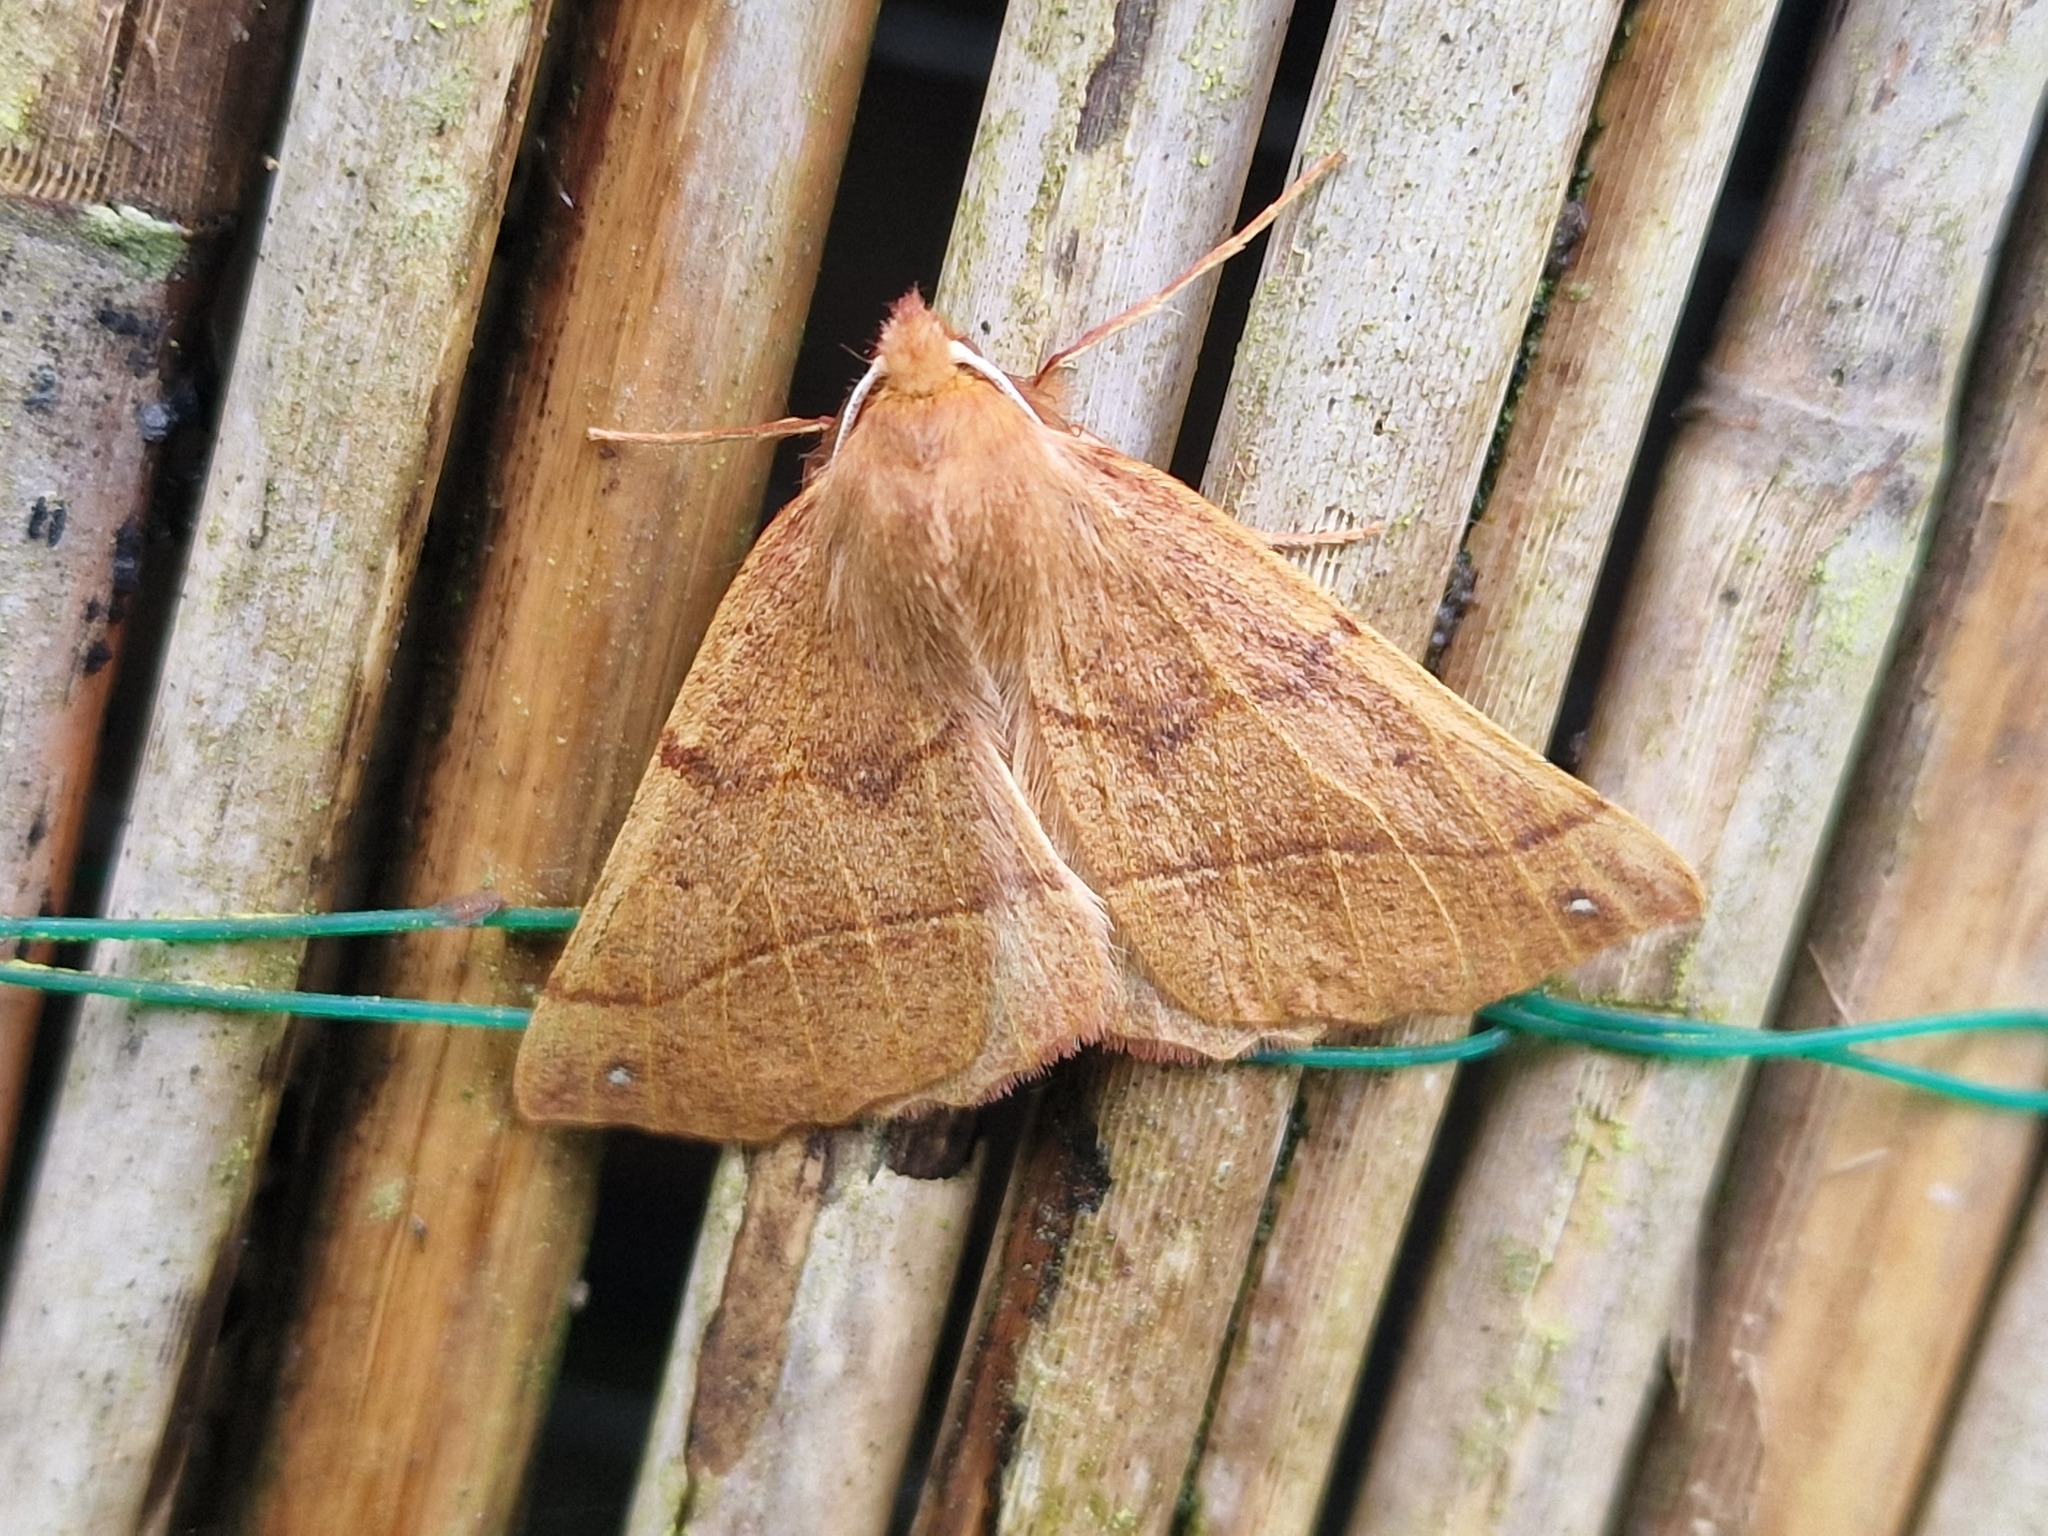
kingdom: Animalia
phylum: Arthropoda
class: Insecta
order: Lepidoptera
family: Geometridae
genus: Colotois
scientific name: Colotois pennaria
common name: Feathered thorn
